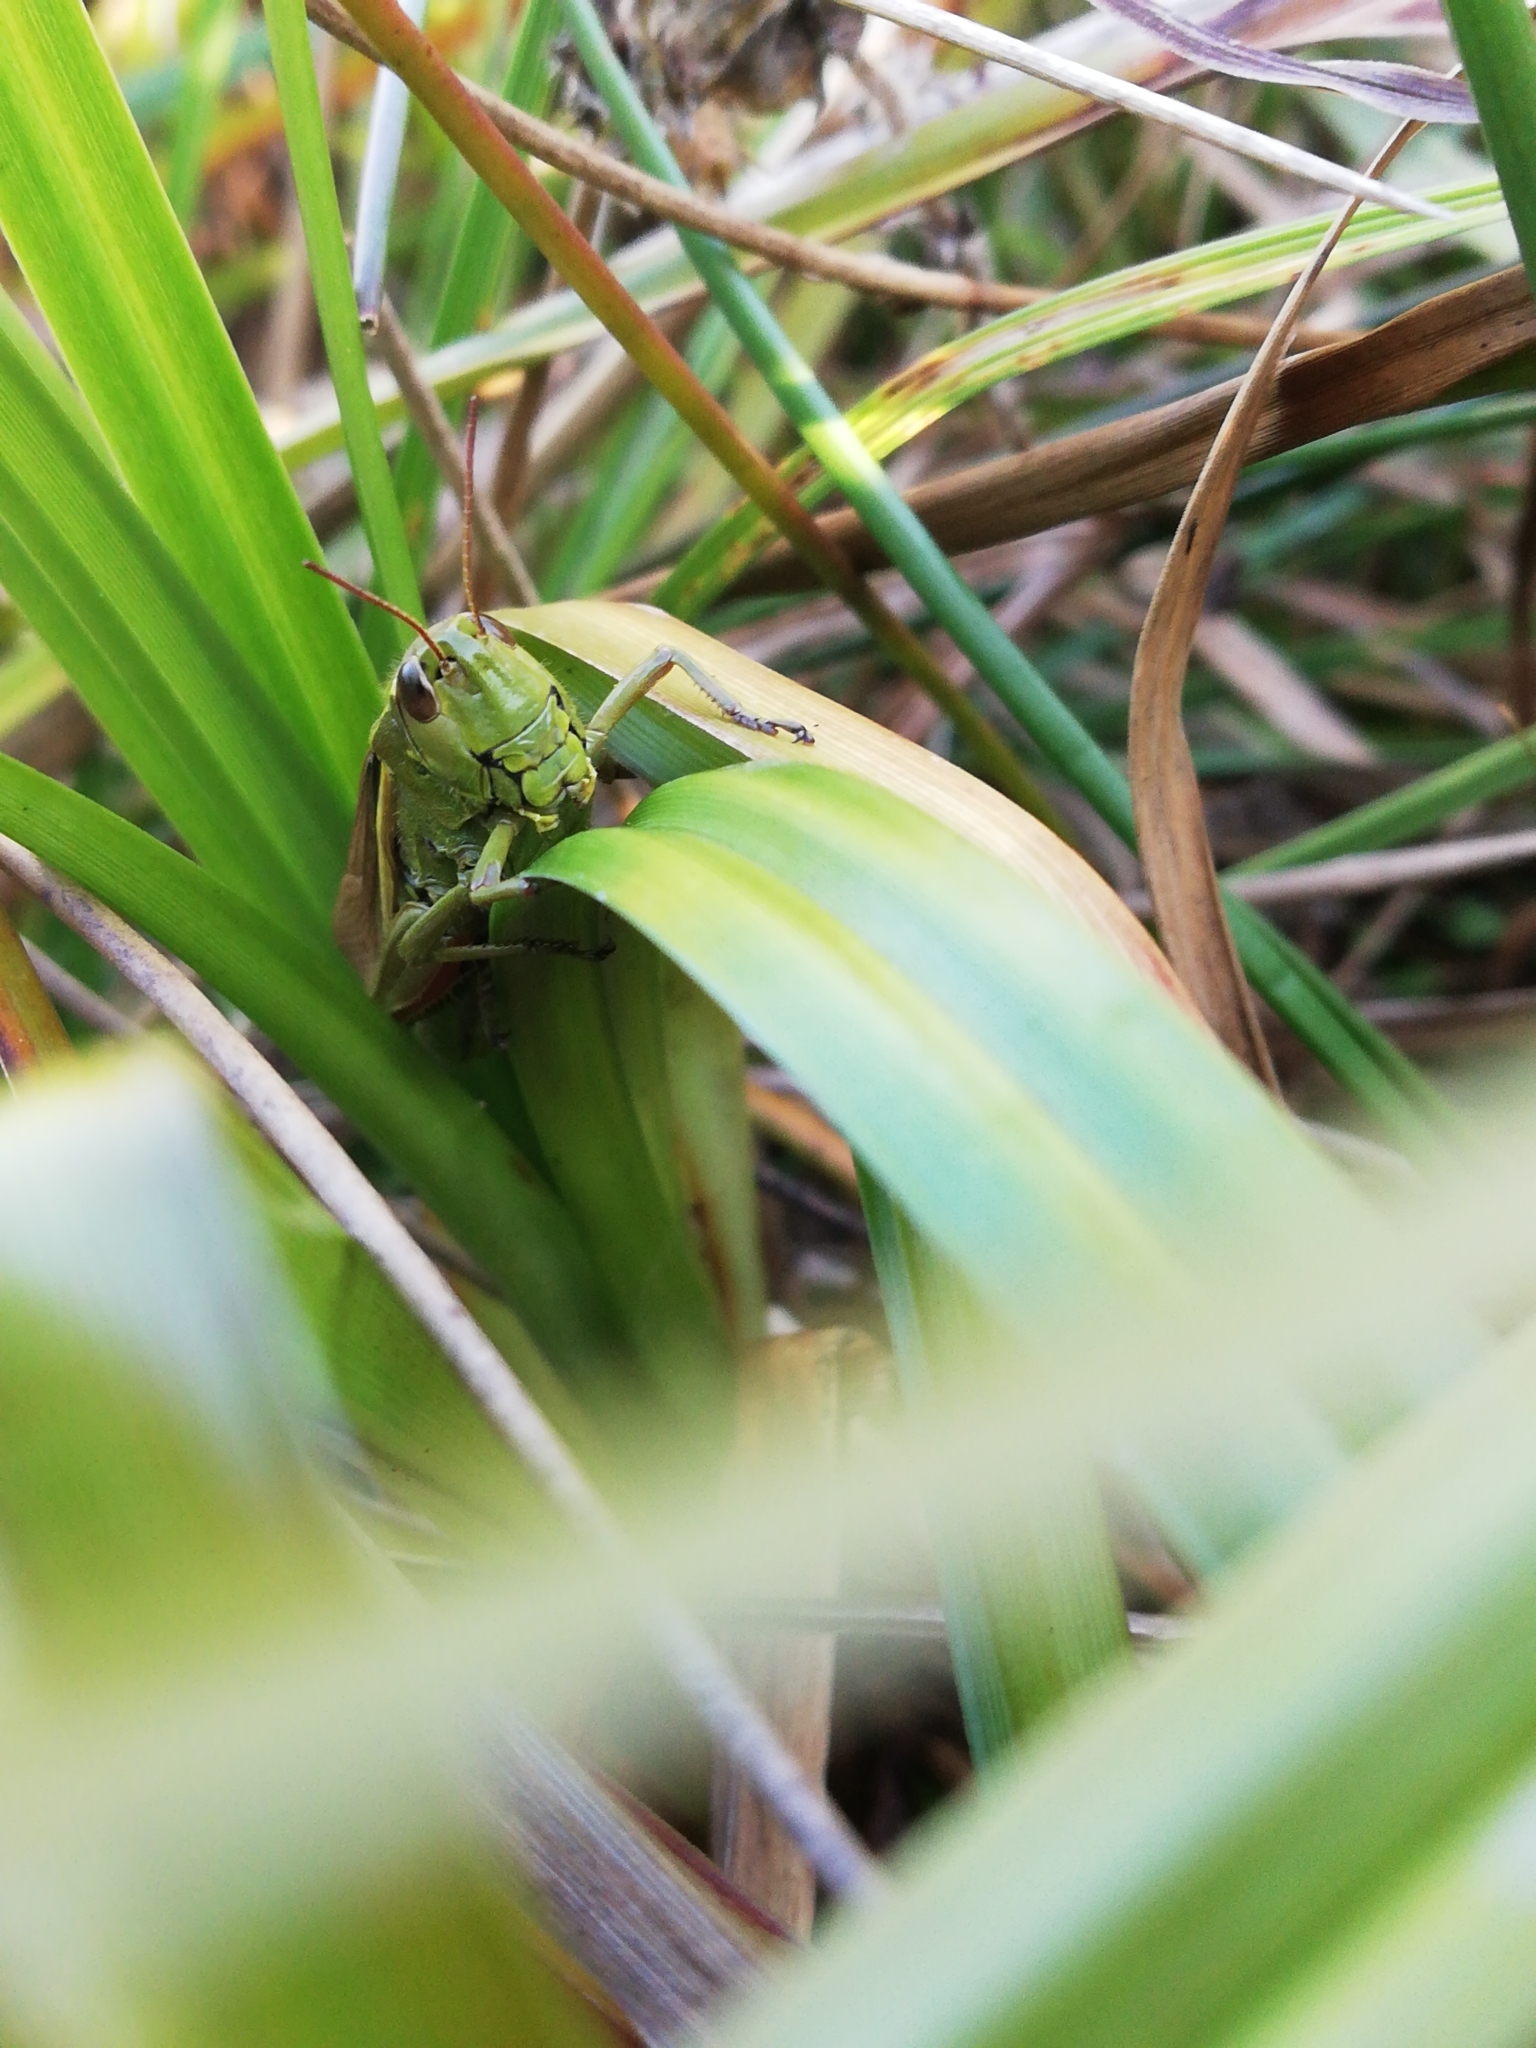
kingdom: Animalia
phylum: Arthropoda
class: Insecta
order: Orthoptera
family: Acrididae
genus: Stethophyma
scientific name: Stethophyma grossum
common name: Large marsh grasshopper
